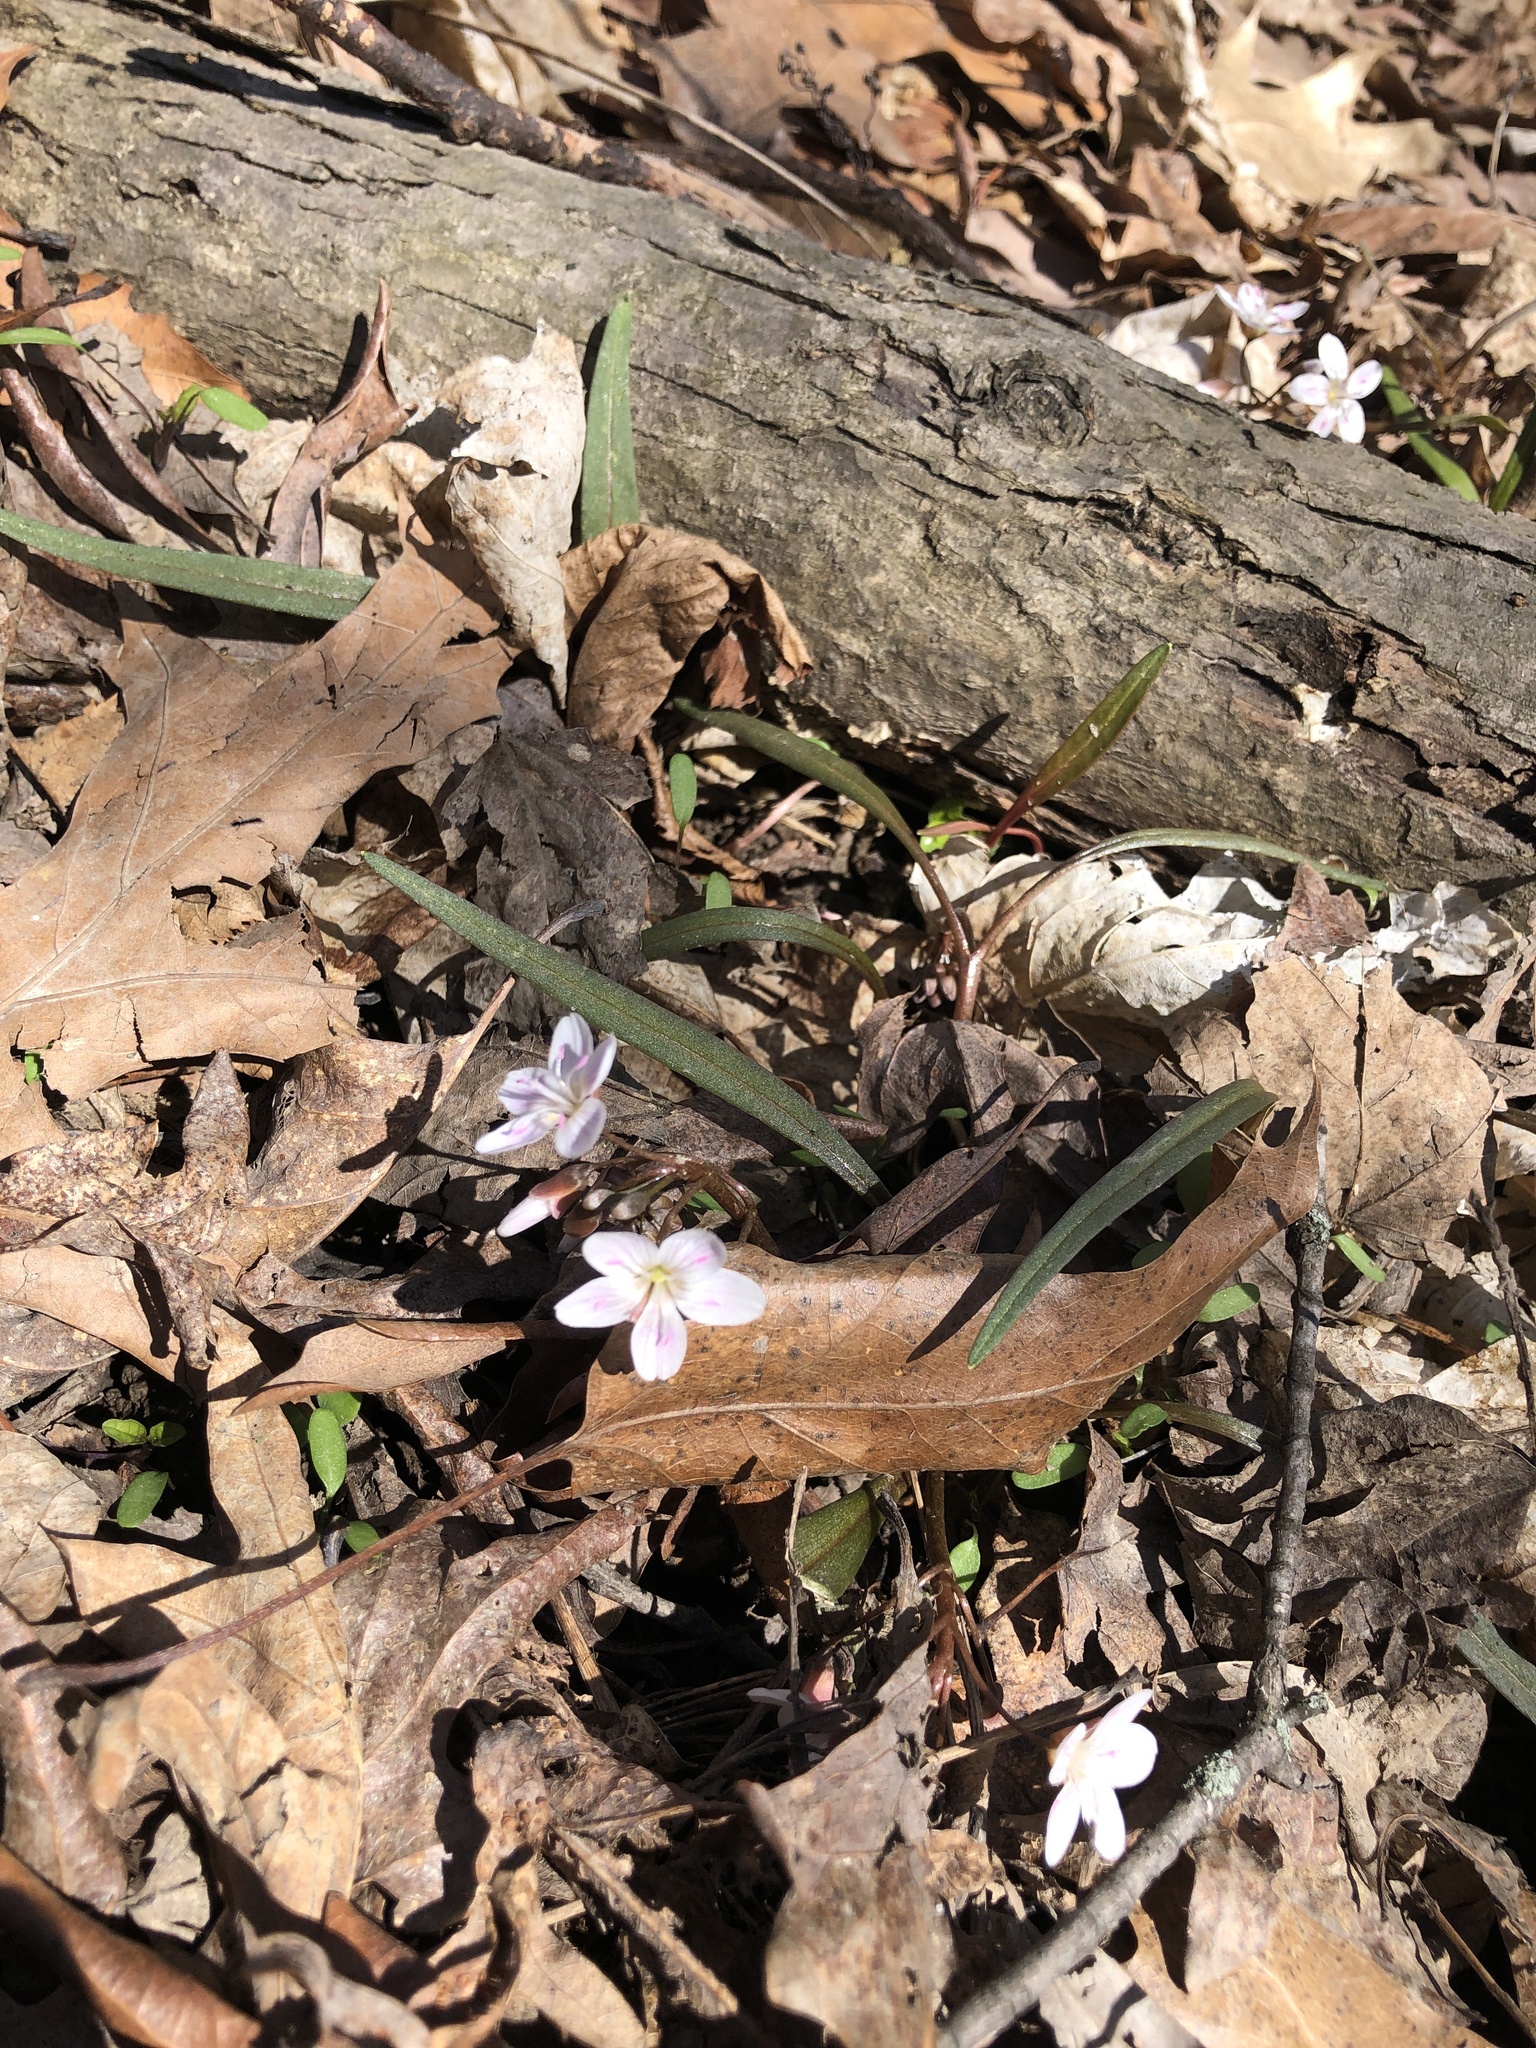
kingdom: Plantae
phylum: Tracheophyta
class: Magnoliopsida
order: Caryophyllales
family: Montiaceae
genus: Claytonia
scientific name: Claytonia virginica
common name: Virginia springbeauty
